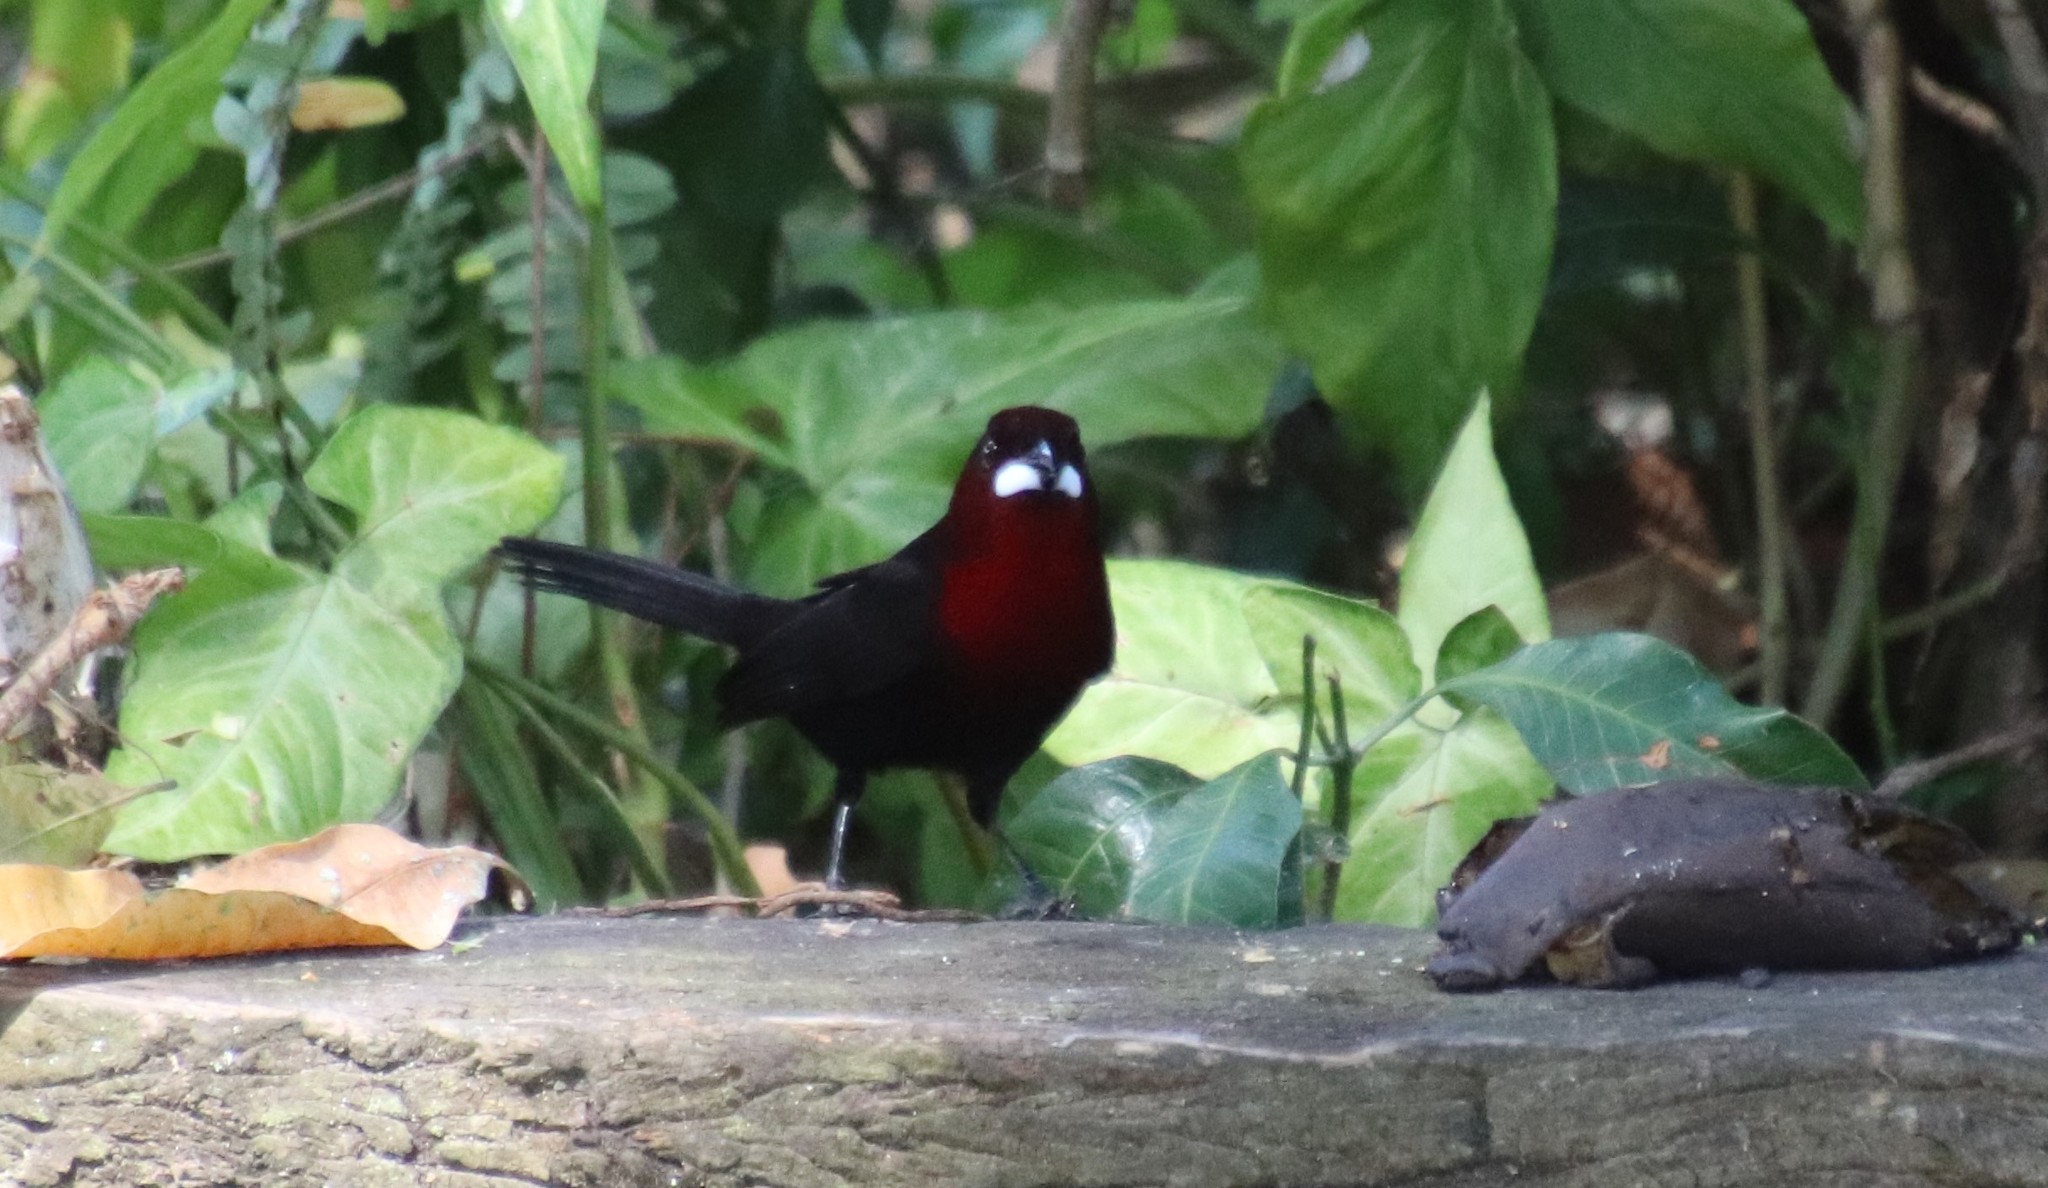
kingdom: Animalia
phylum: Chordata
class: Aves
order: Passeriformes
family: Thraupidae
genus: Ramphocelus
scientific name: Ramphocelus carbo
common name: Silver-beaked tanager
